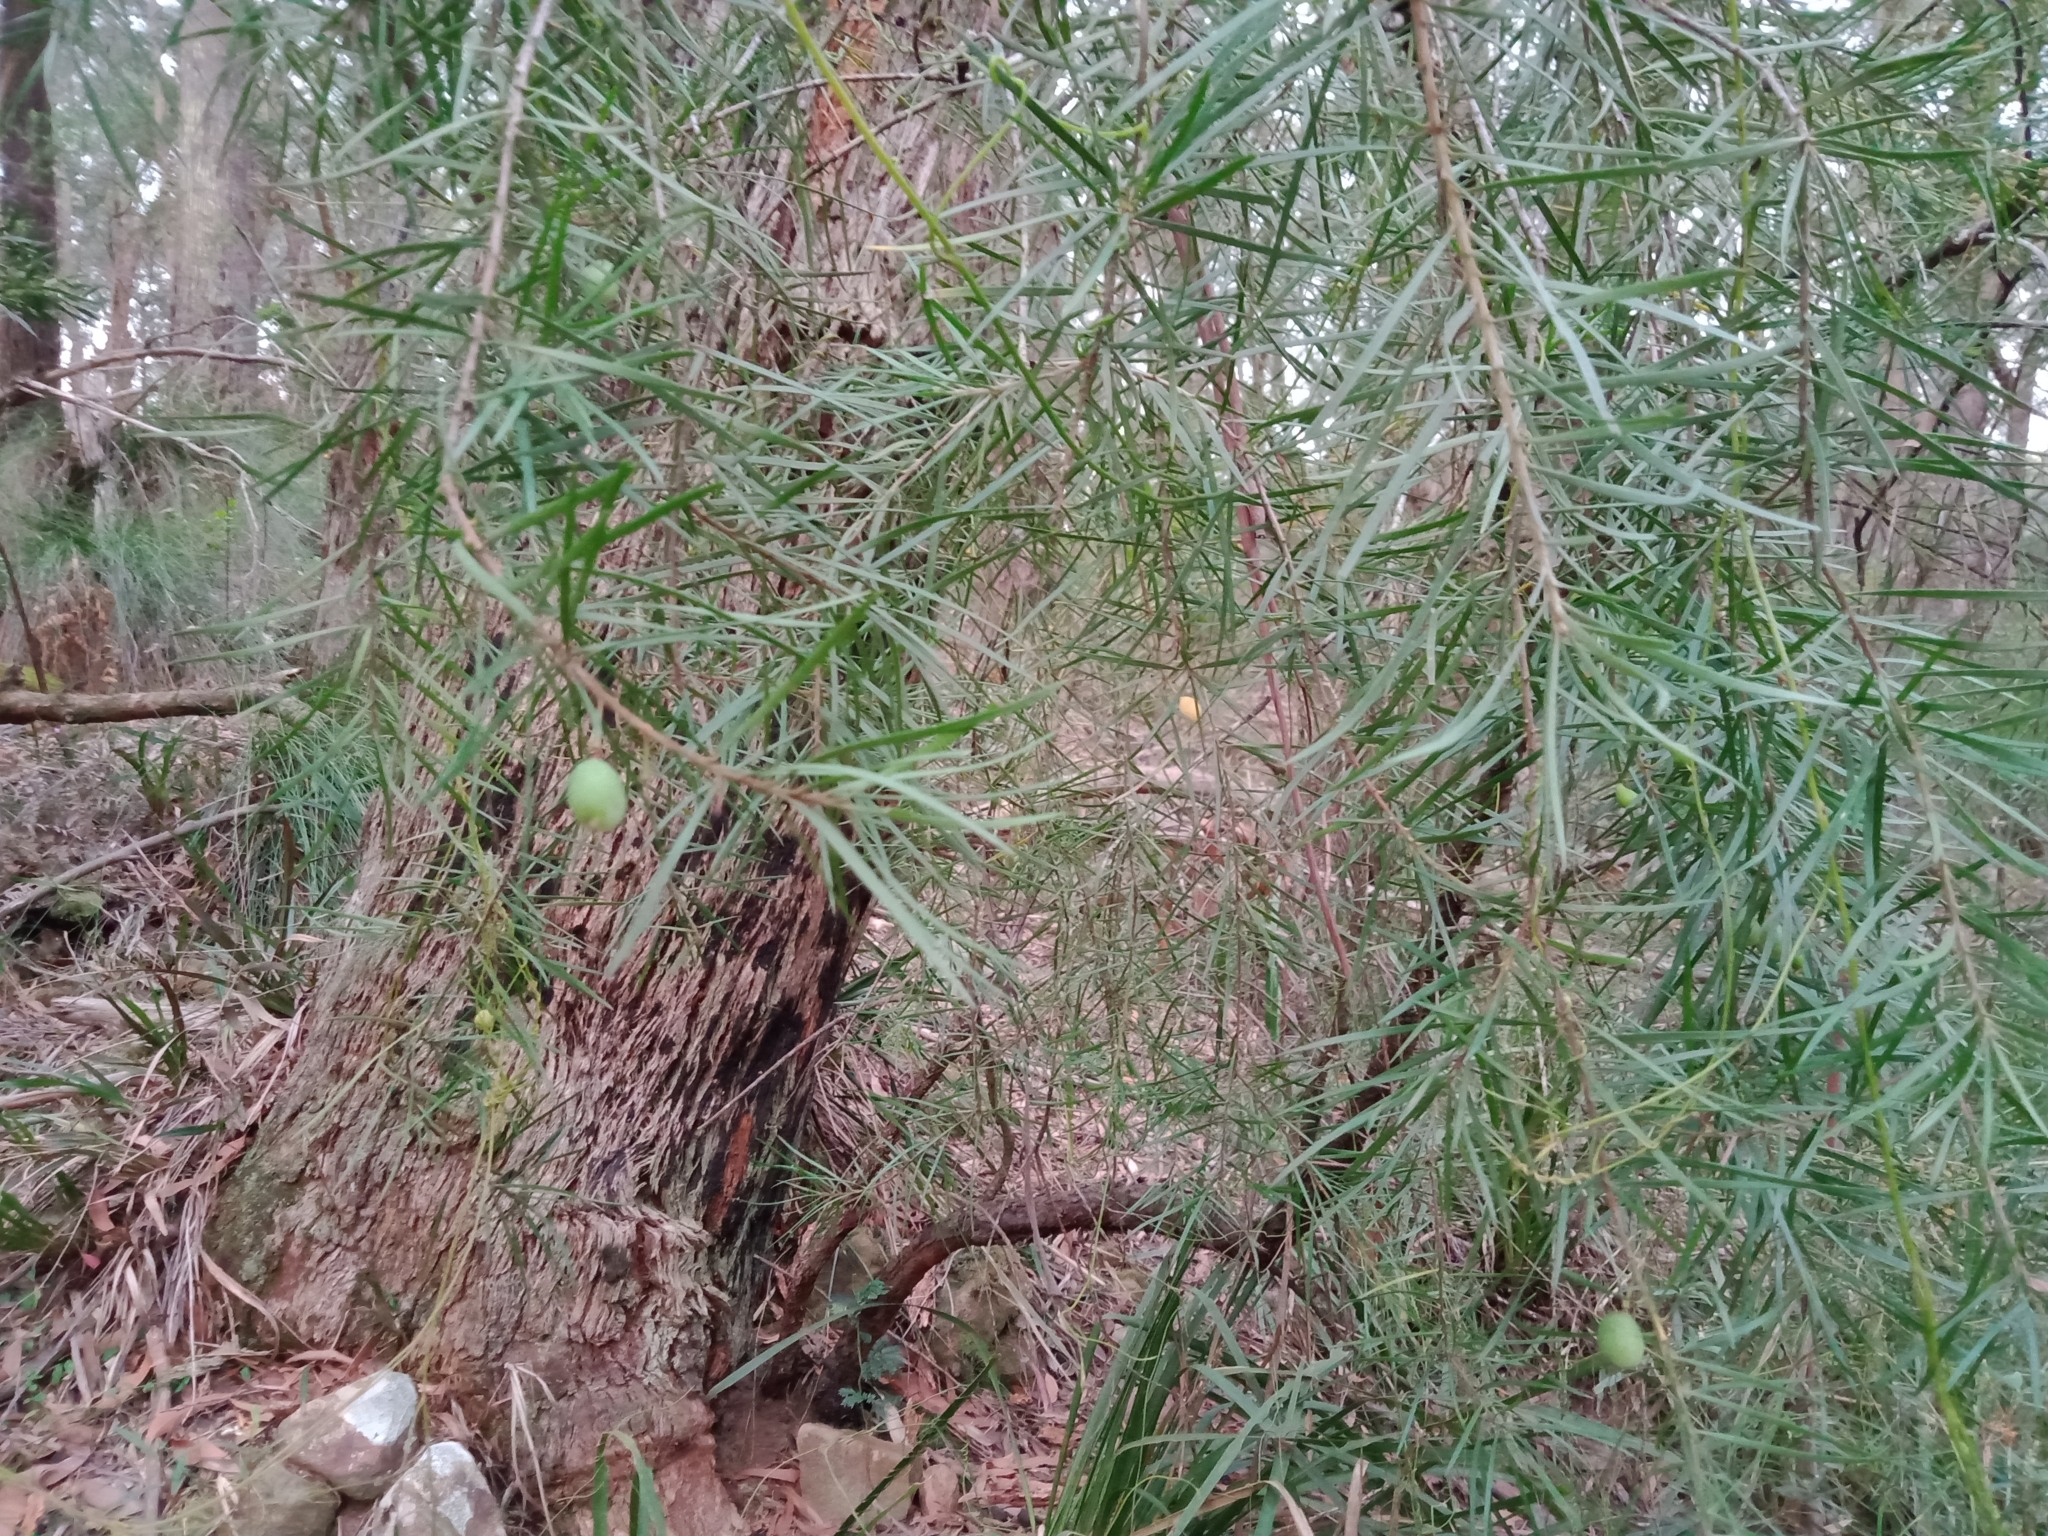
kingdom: Plantae
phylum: Tracheophyta
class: Magnoliopsida
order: Proteales
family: Proteaceae
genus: Persoonia
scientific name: Persoonia linearis
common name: Narrow-leaf geebung
